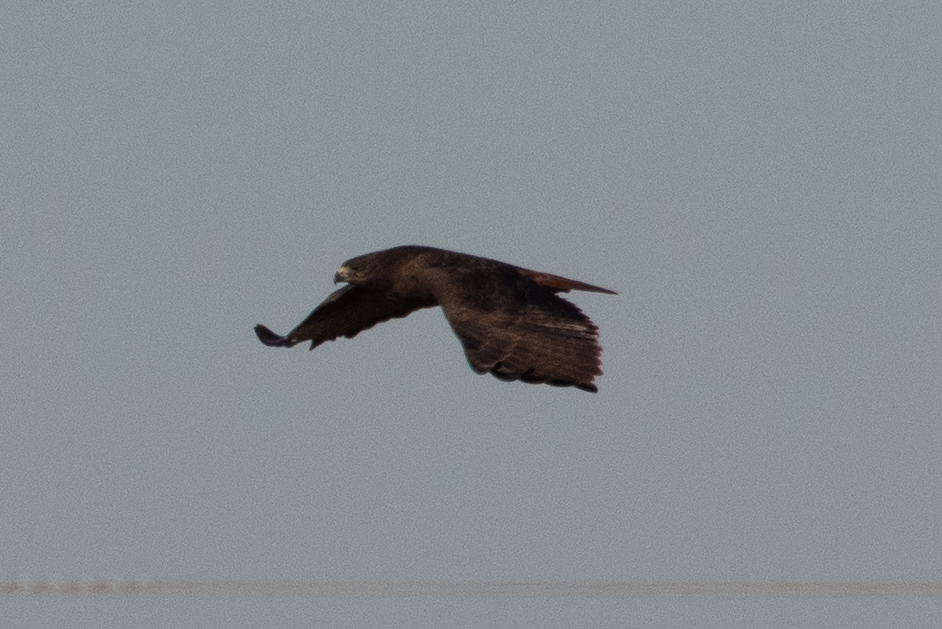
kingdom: Animalia
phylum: Chordata
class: Aves
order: Accipitriformes
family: Accipitridae
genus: Buteo
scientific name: Buteo jamaicensis
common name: Red-tailed hawk
